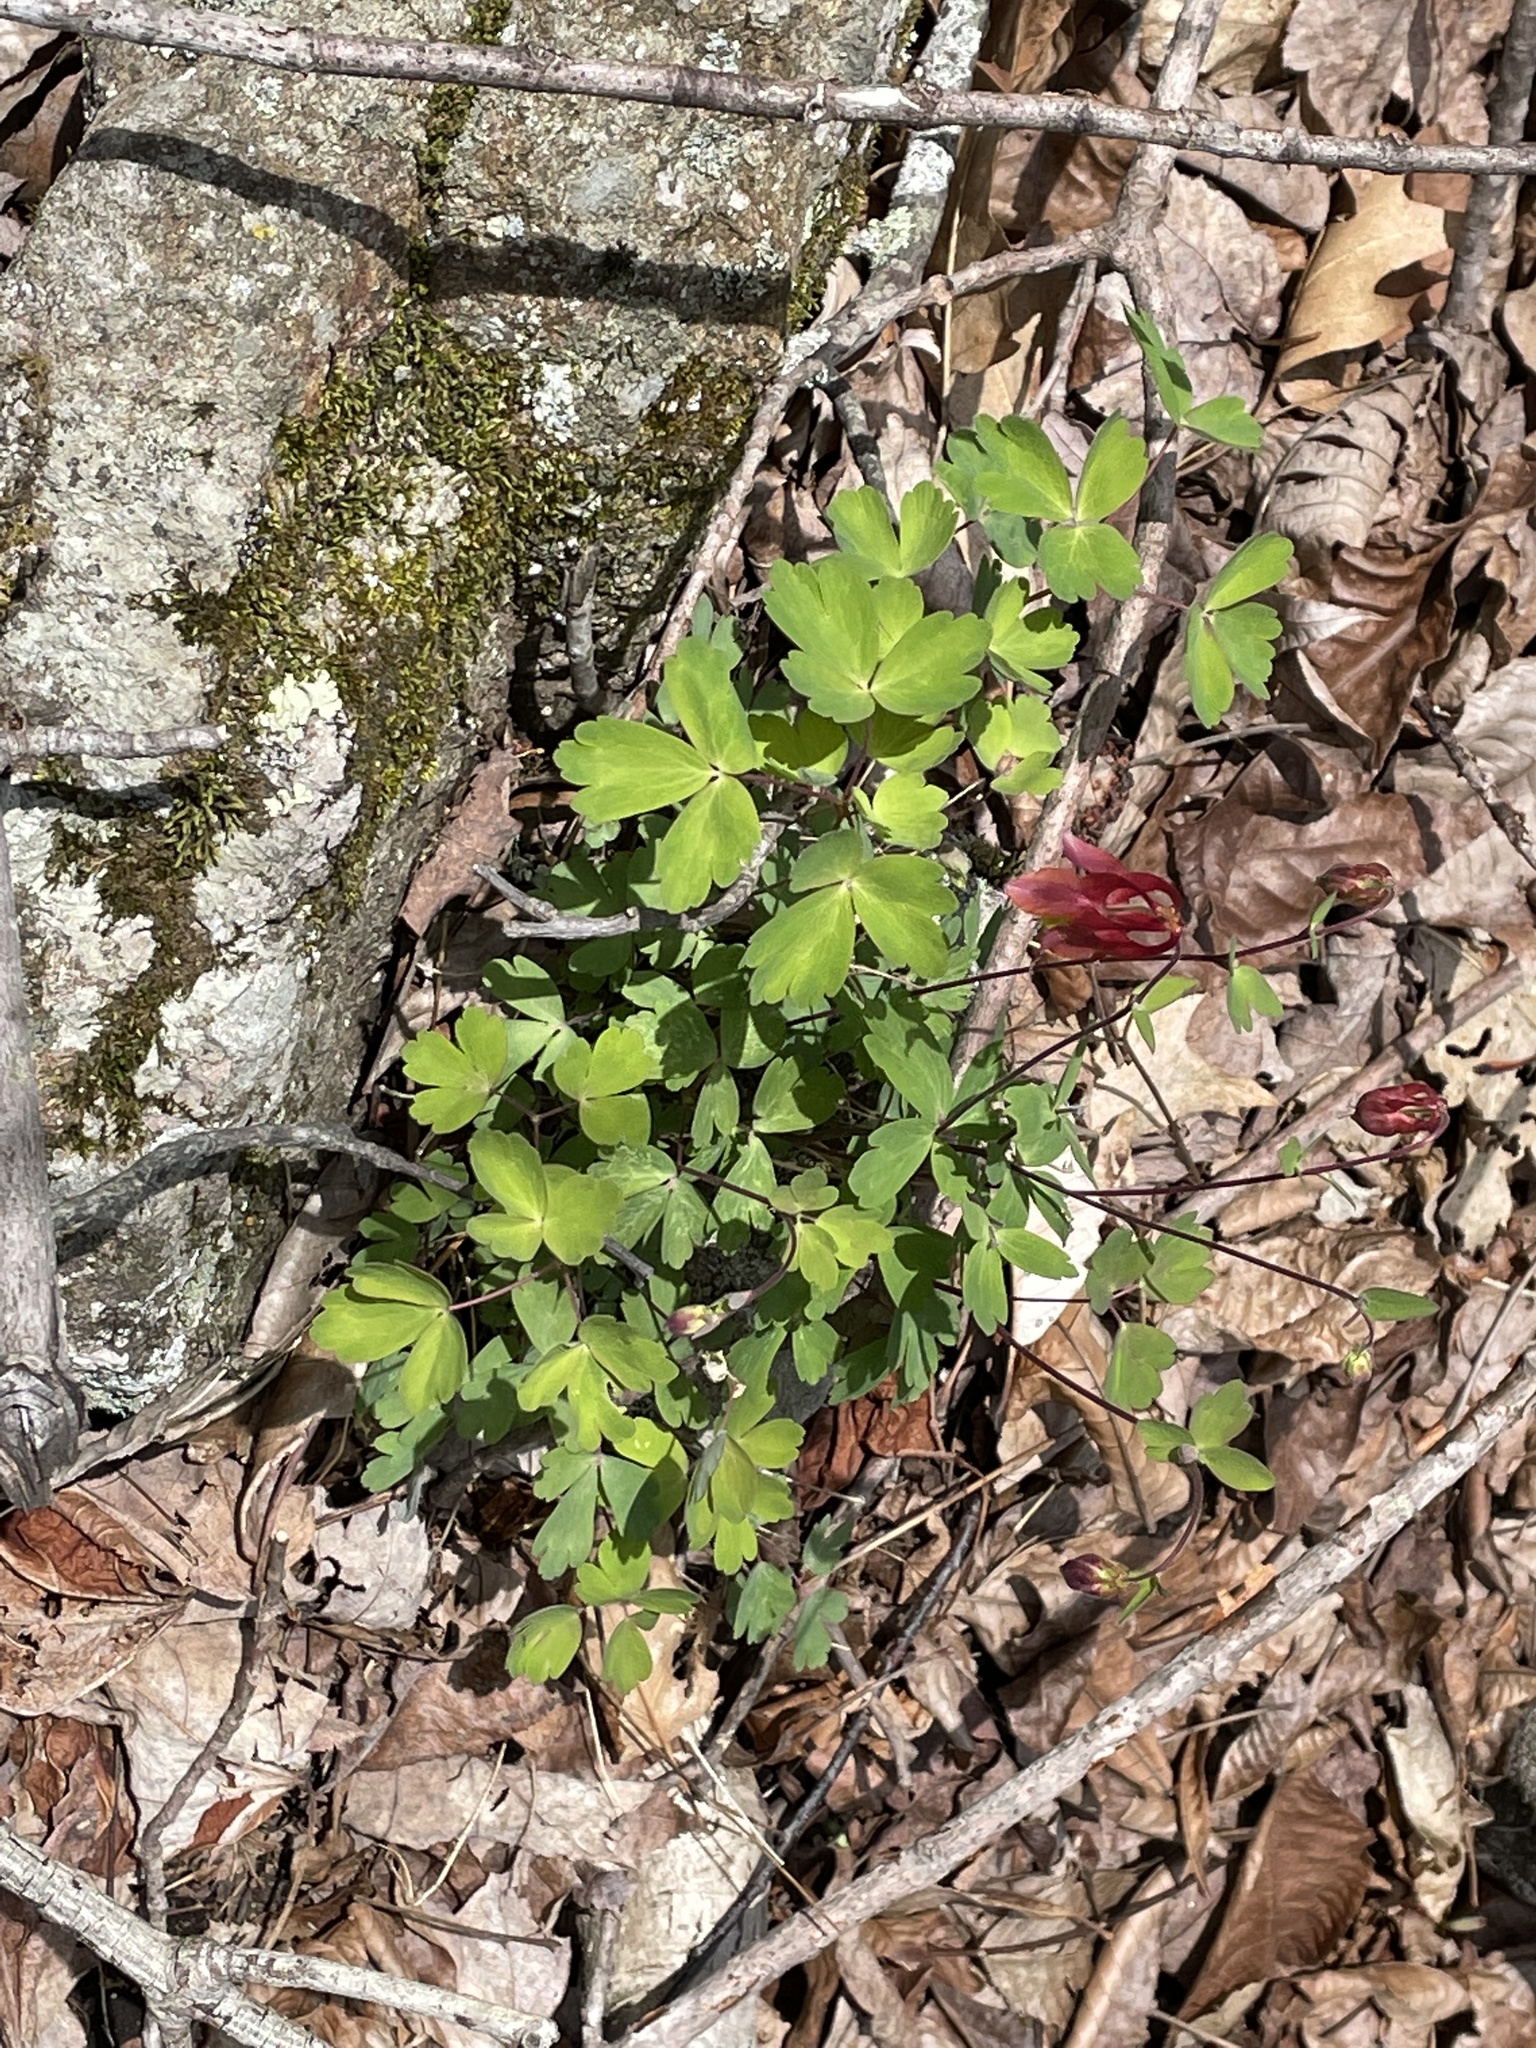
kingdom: Plantae
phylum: Tracheophyta
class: Magnoliopsida
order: Ranunculales
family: Ranunculaceae
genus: Aquilegia
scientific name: Aquilegia canadensis
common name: American columbine
